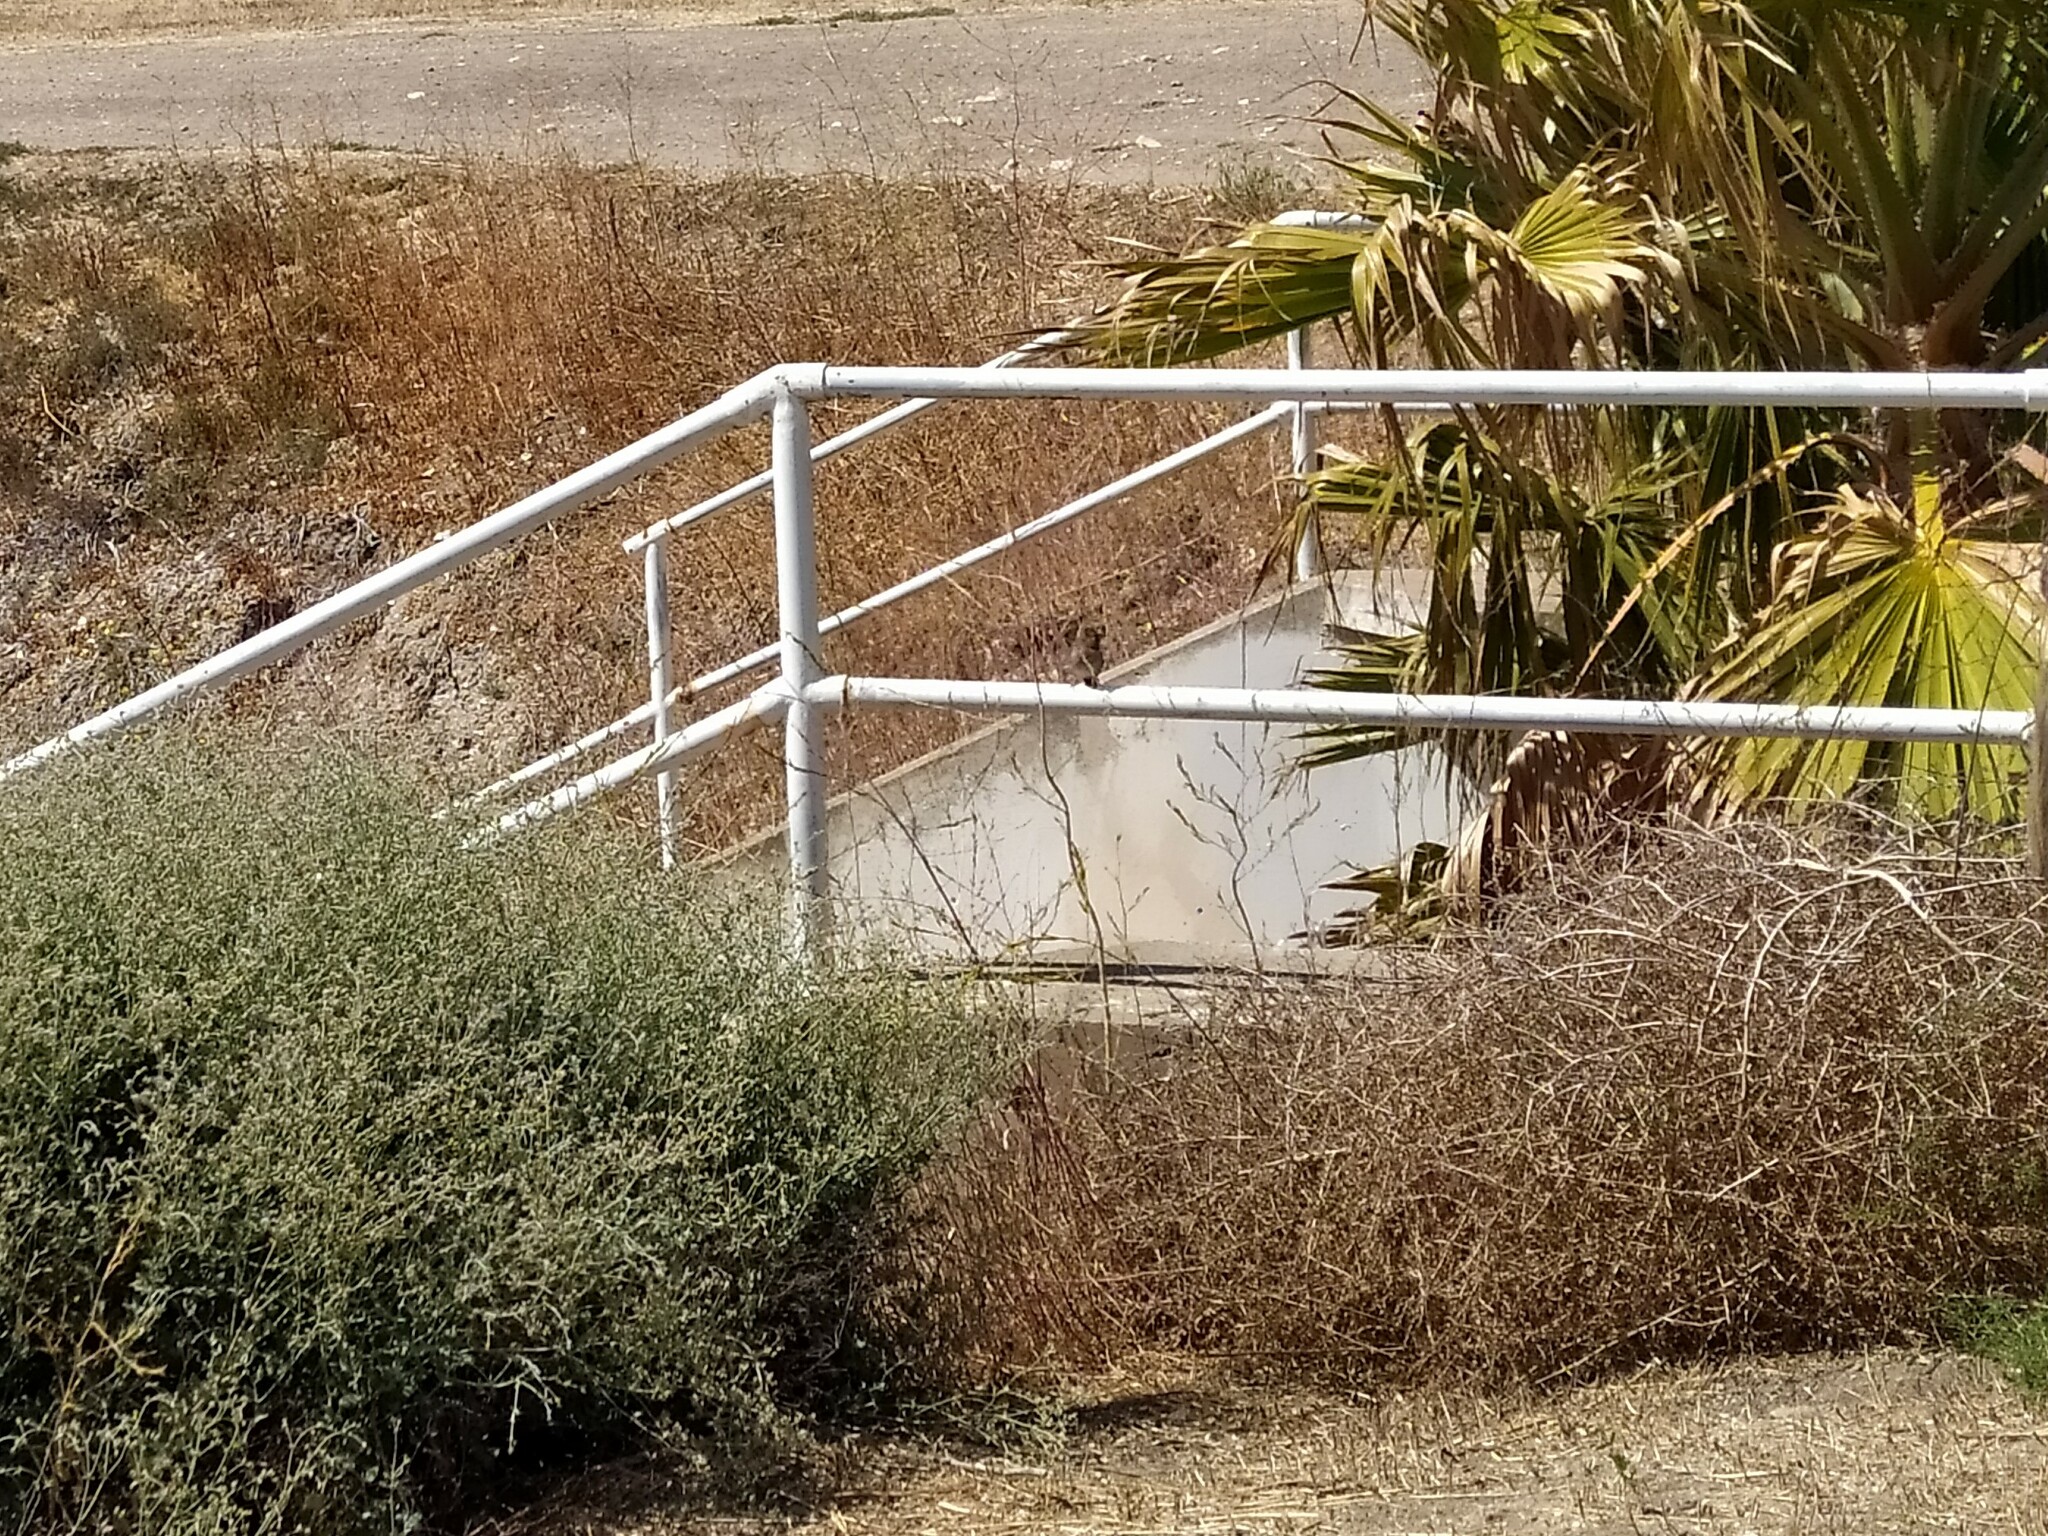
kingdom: Animalia
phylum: Chordata
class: Aves
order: Passeriformes
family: Passeridae
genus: Passer
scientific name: Passer domesticus
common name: House sparrow
